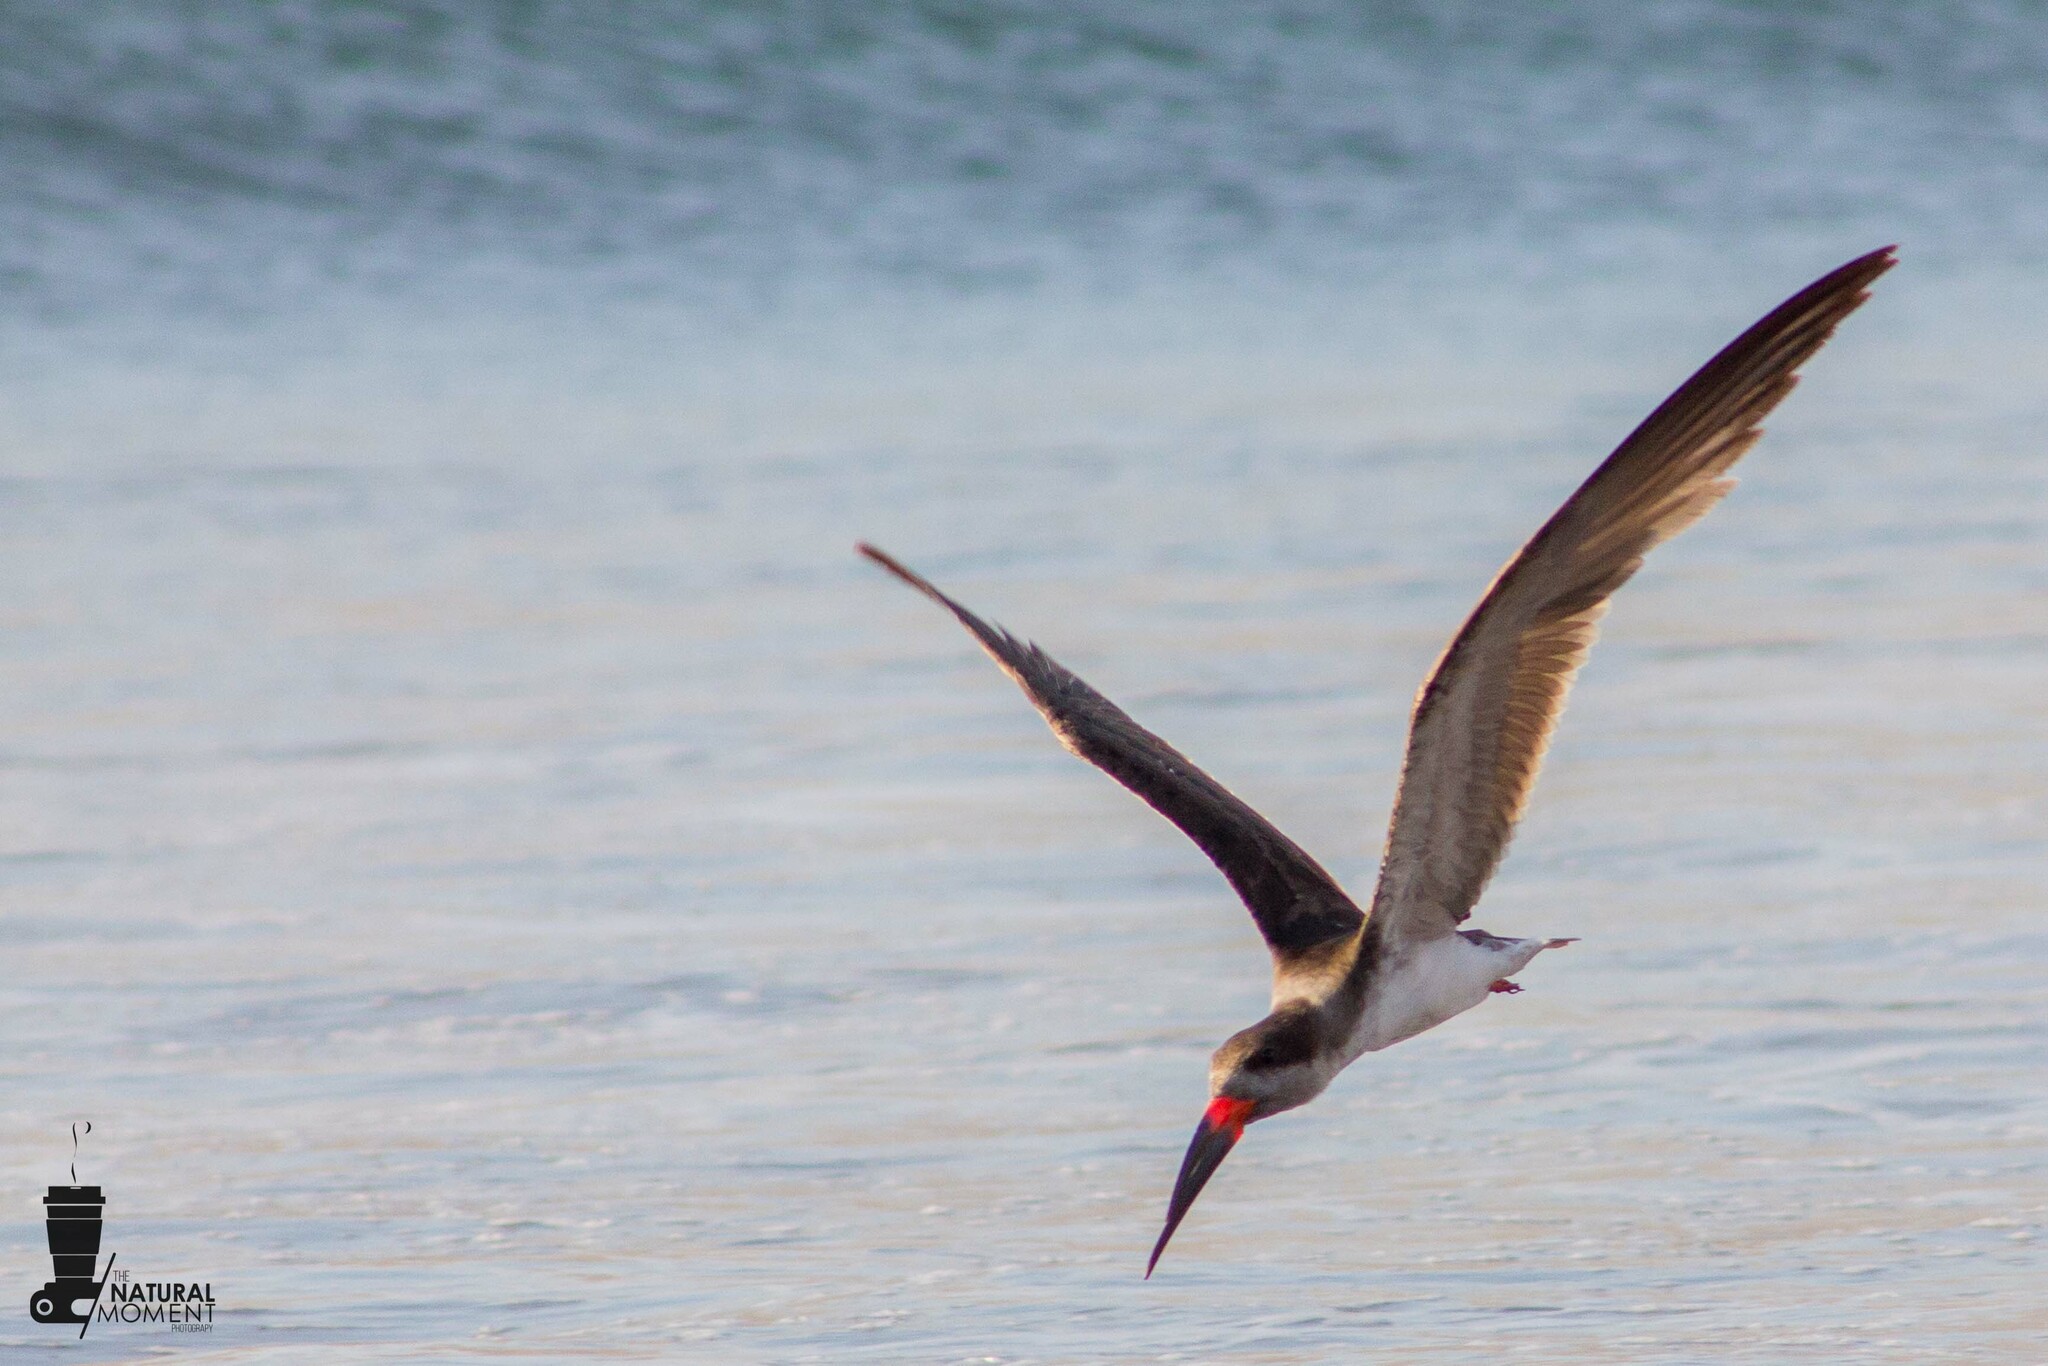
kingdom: Animalia
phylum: Chordata
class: Aves
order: Charadriiformes
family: Laridae
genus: Rynchops
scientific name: Rynchops niger
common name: Black skimmer
